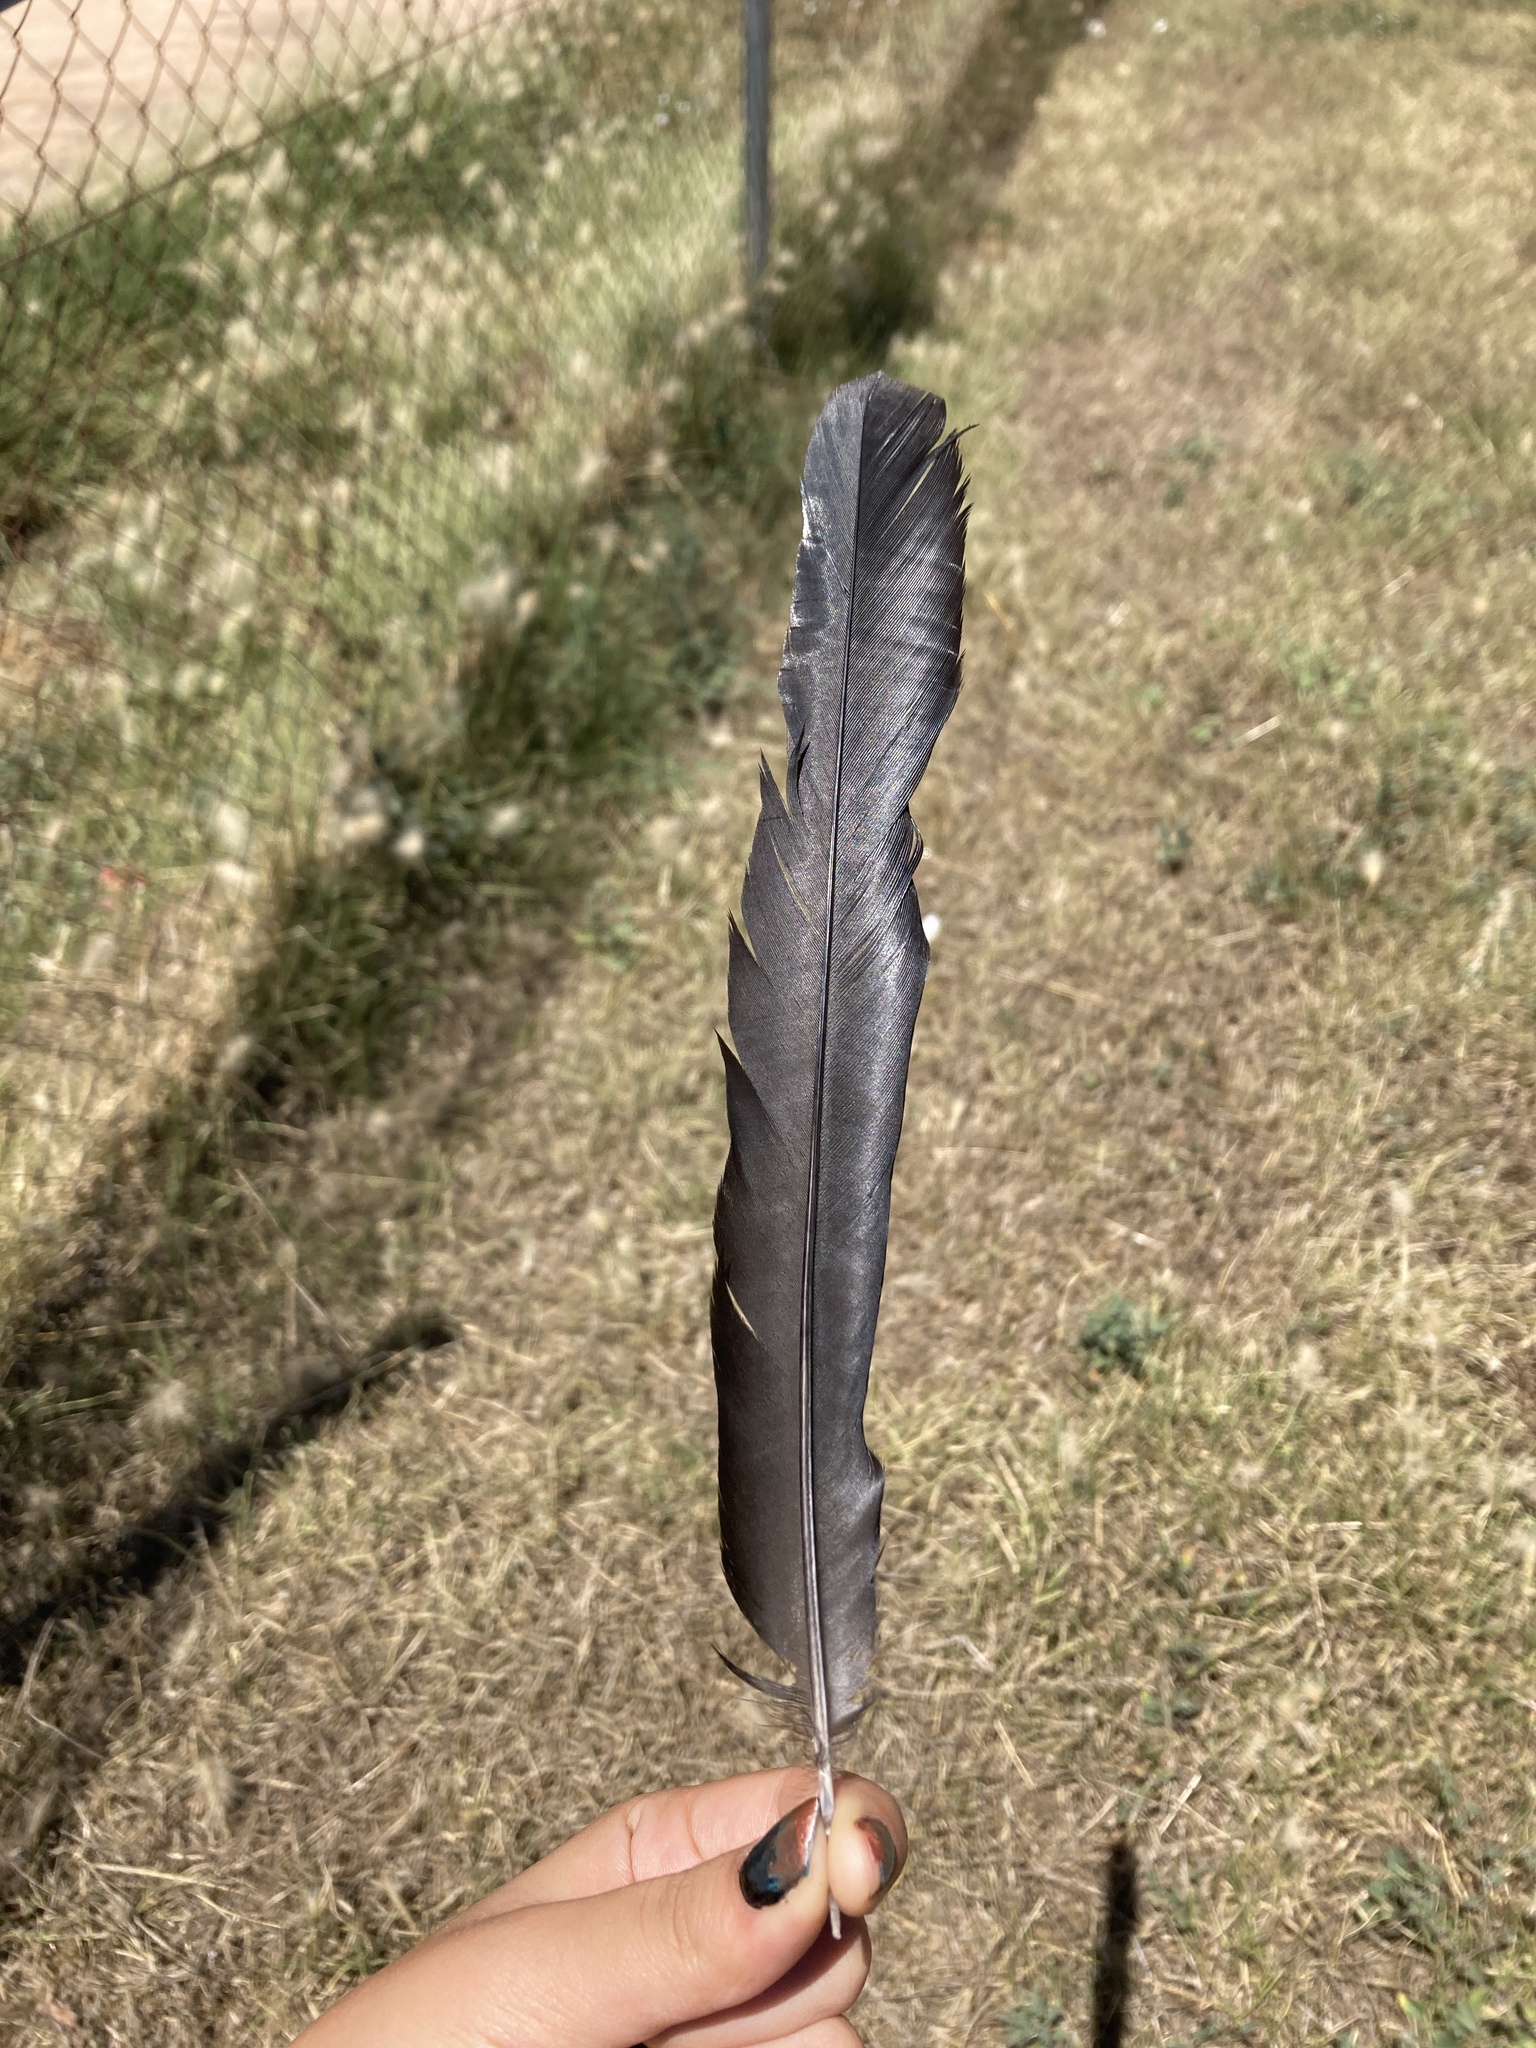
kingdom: Animalia
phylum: Chordata
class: Aves
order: Passeriformes
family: Corvidae
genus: Pica
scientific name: Pica pica
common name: Eurasian magpie
